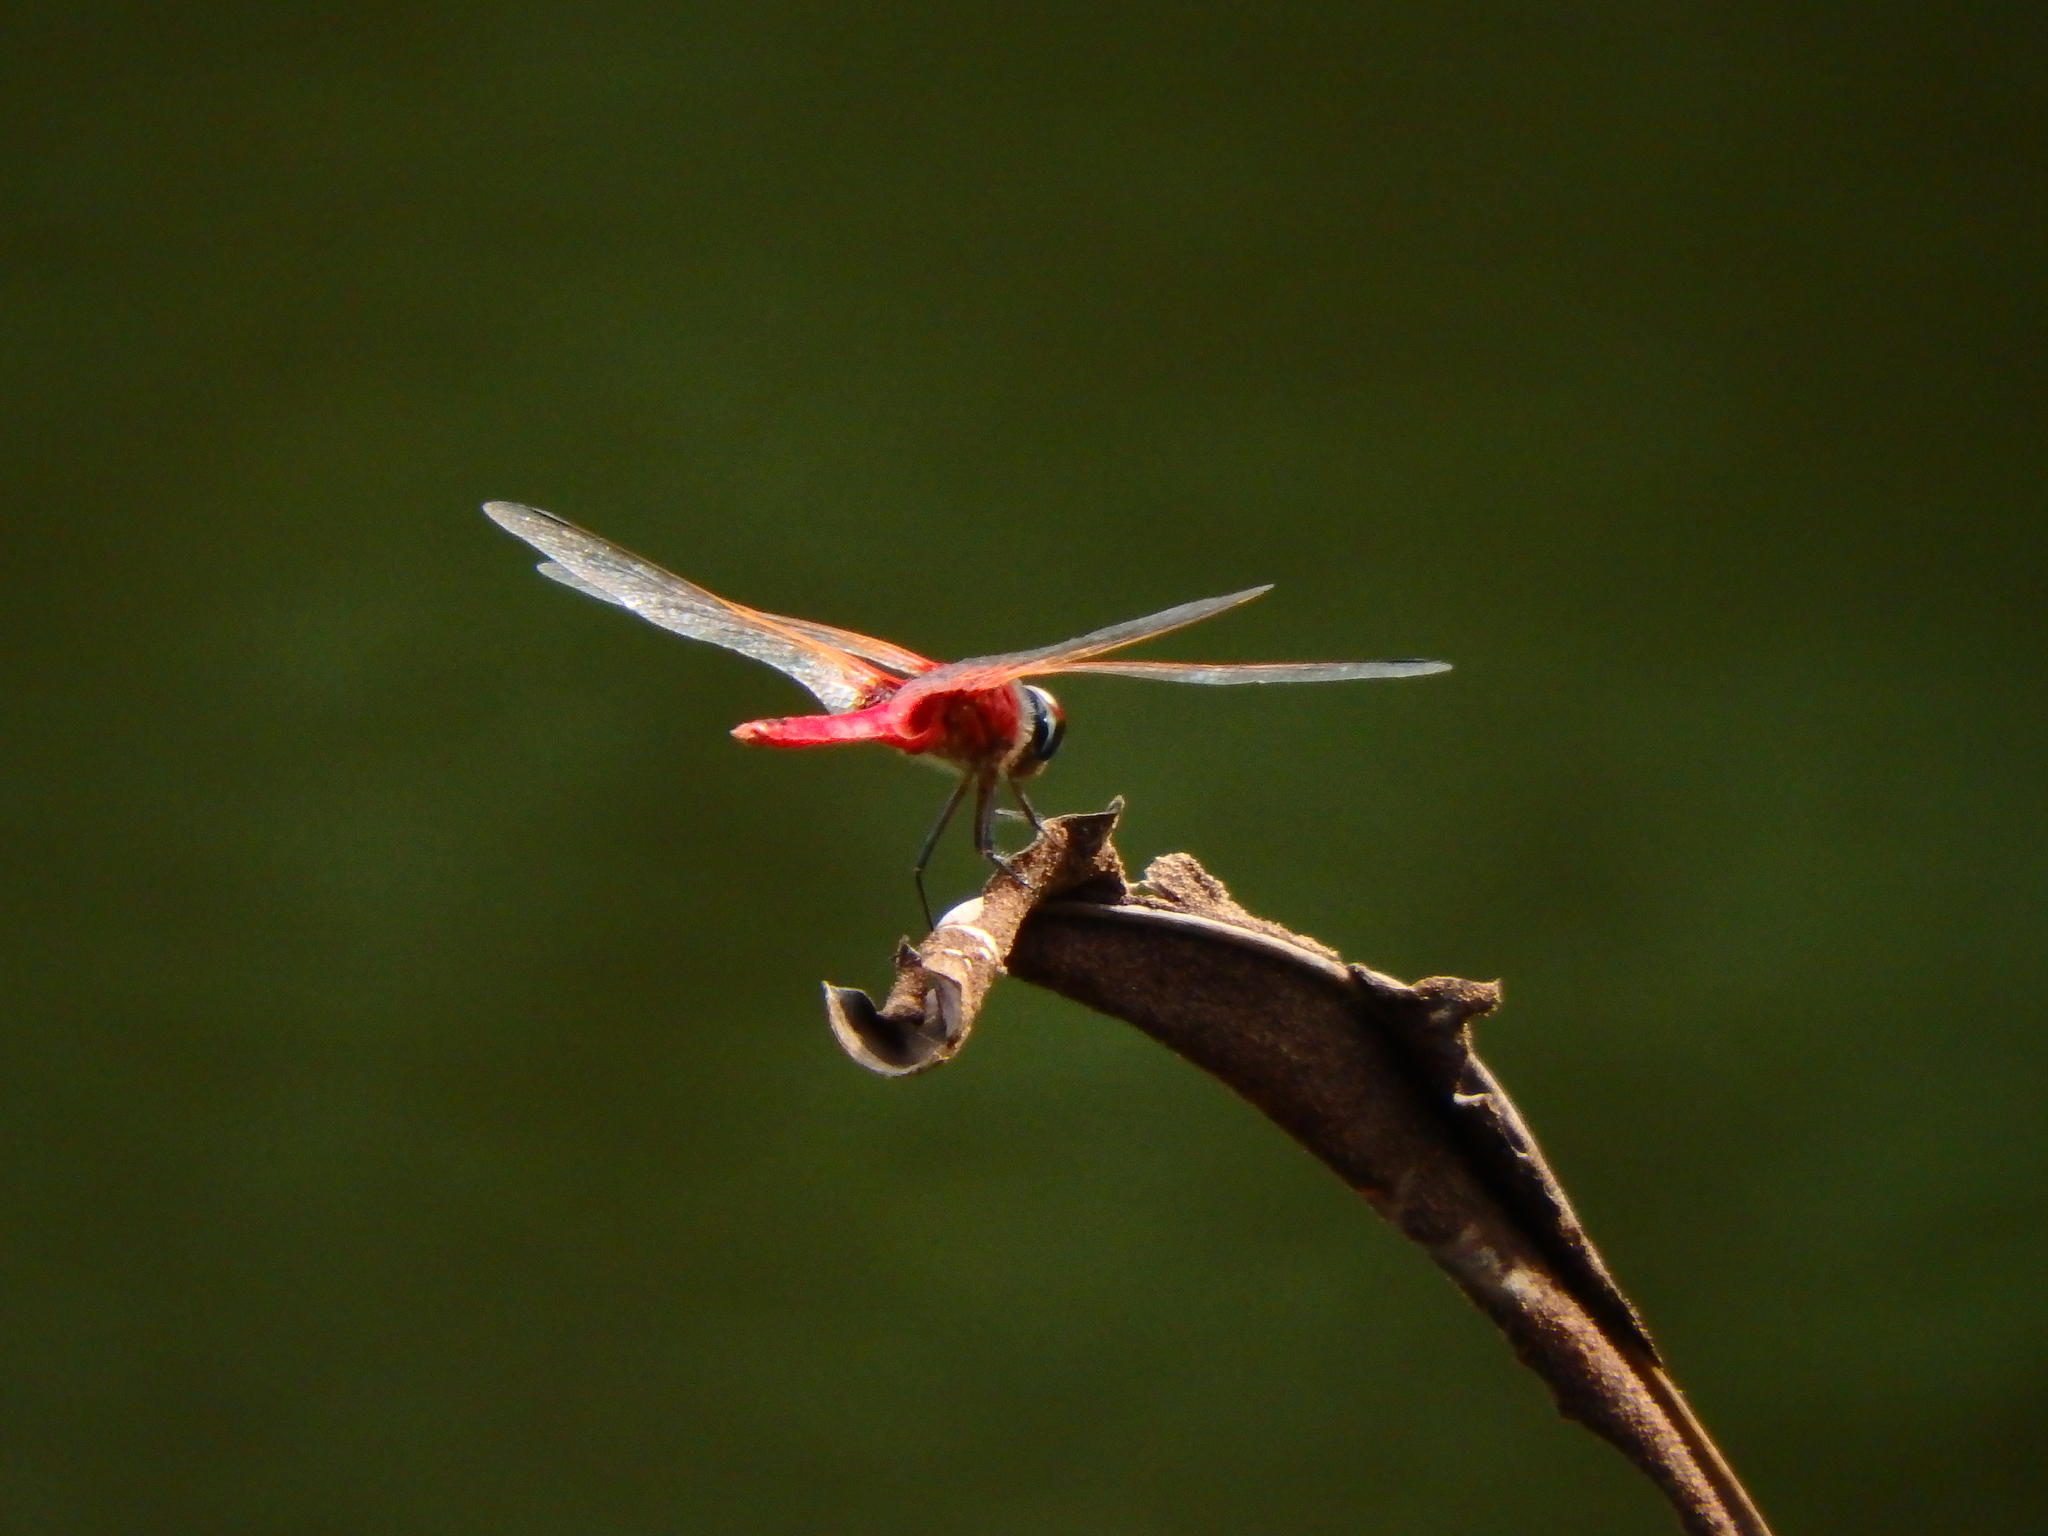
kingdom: Animalia
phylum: Arthropoda
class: Insecta
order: Odonata
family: Libellulidae
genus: Urothemis
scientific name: Urothemis signata
